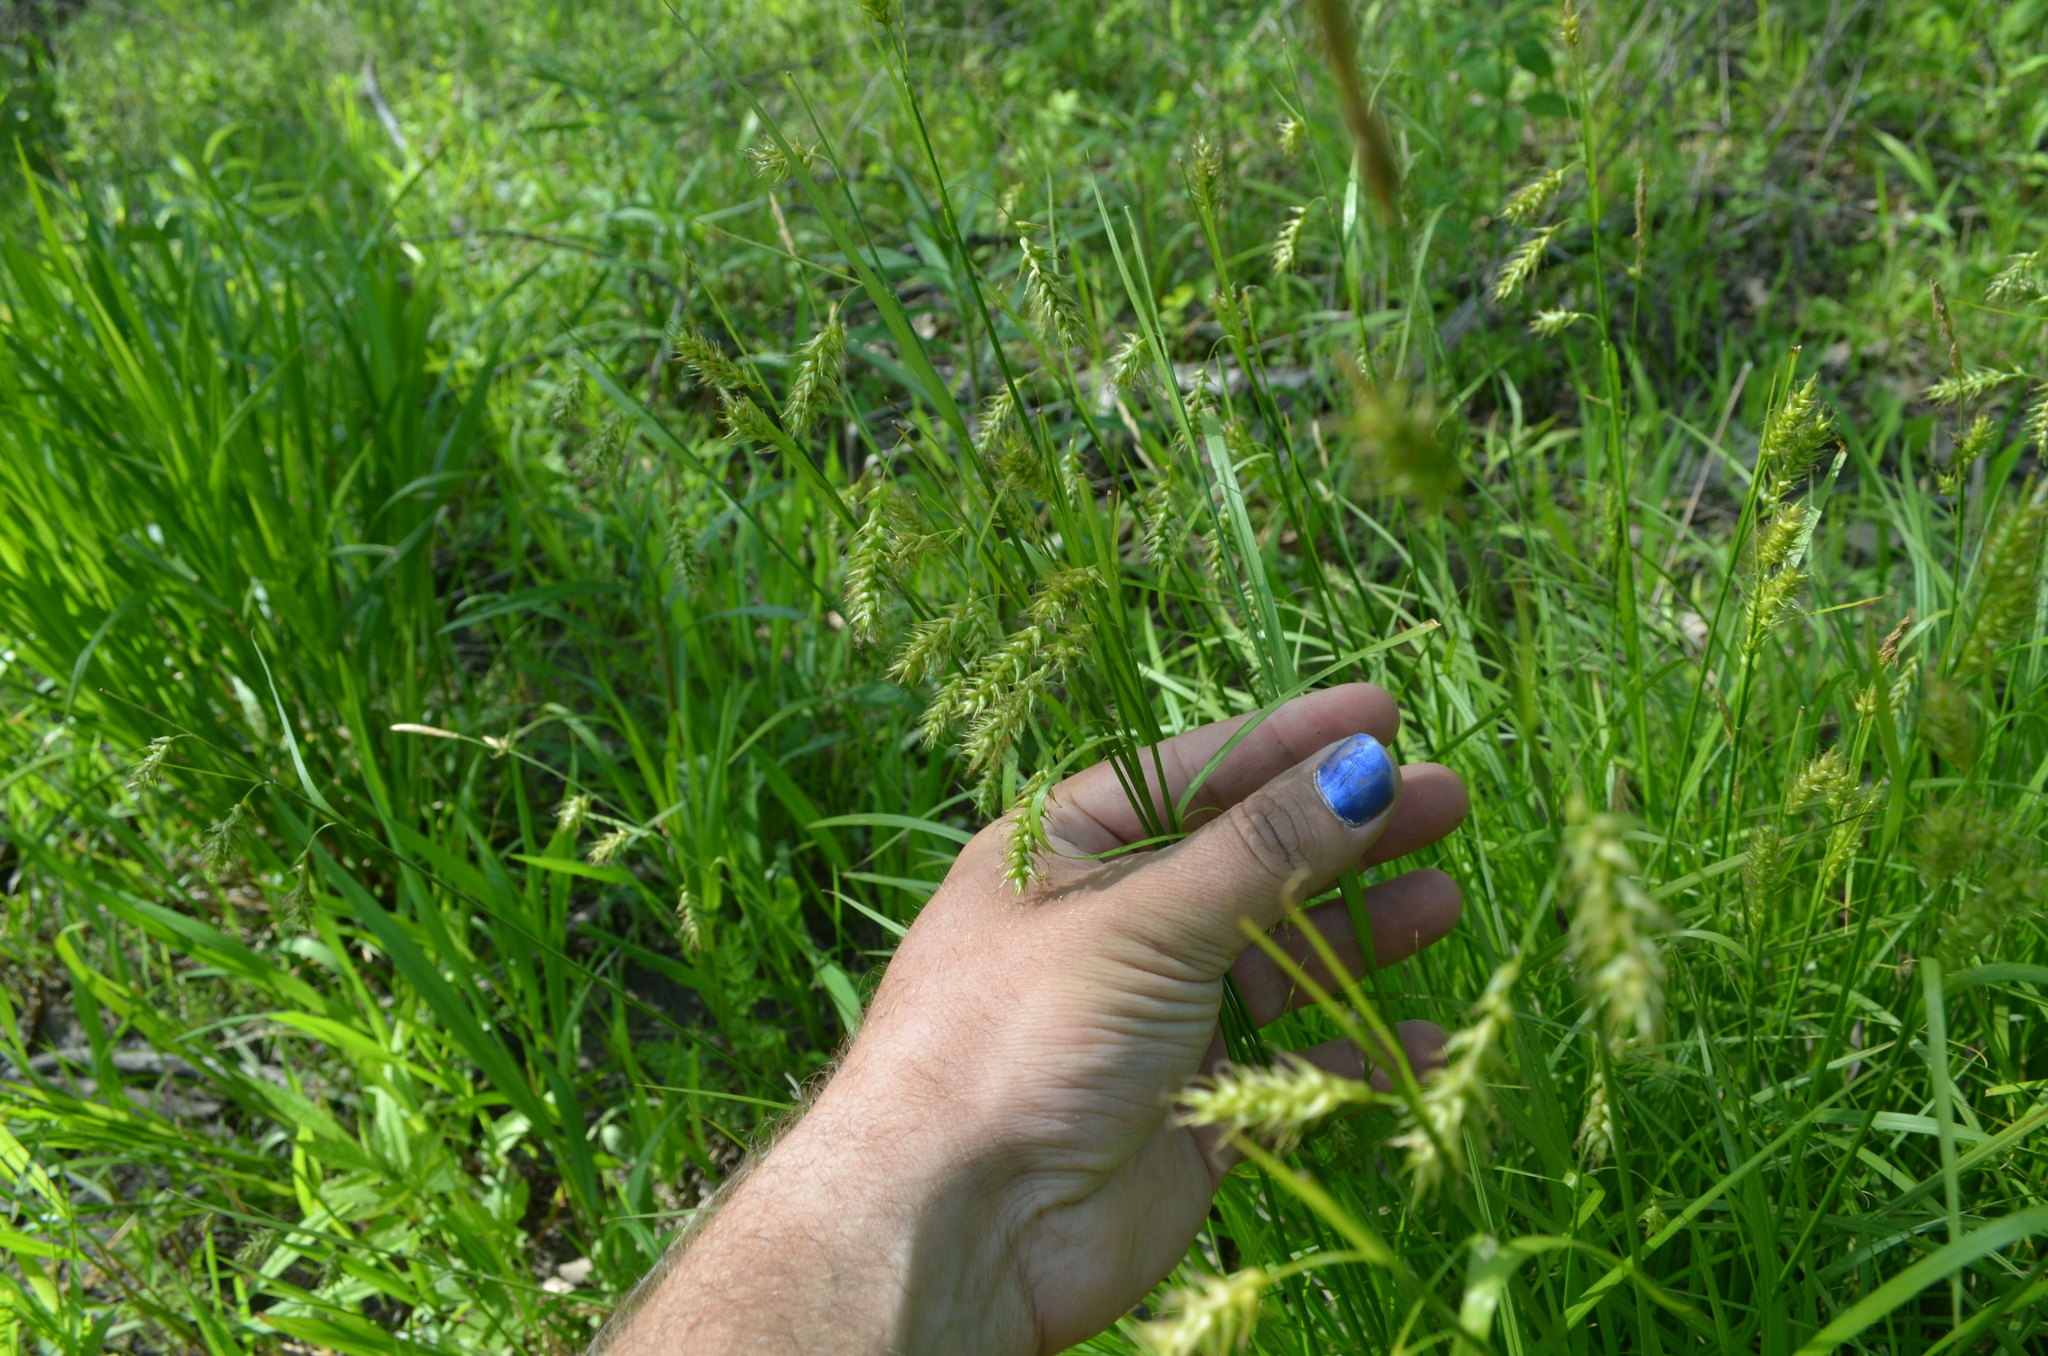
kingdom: Plantae
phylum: Tracheophyta
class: Liliopsida
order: Poales
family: Cyperaceae
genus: Carex
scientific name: Carex sprengelii
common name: Long-beaked sedge
